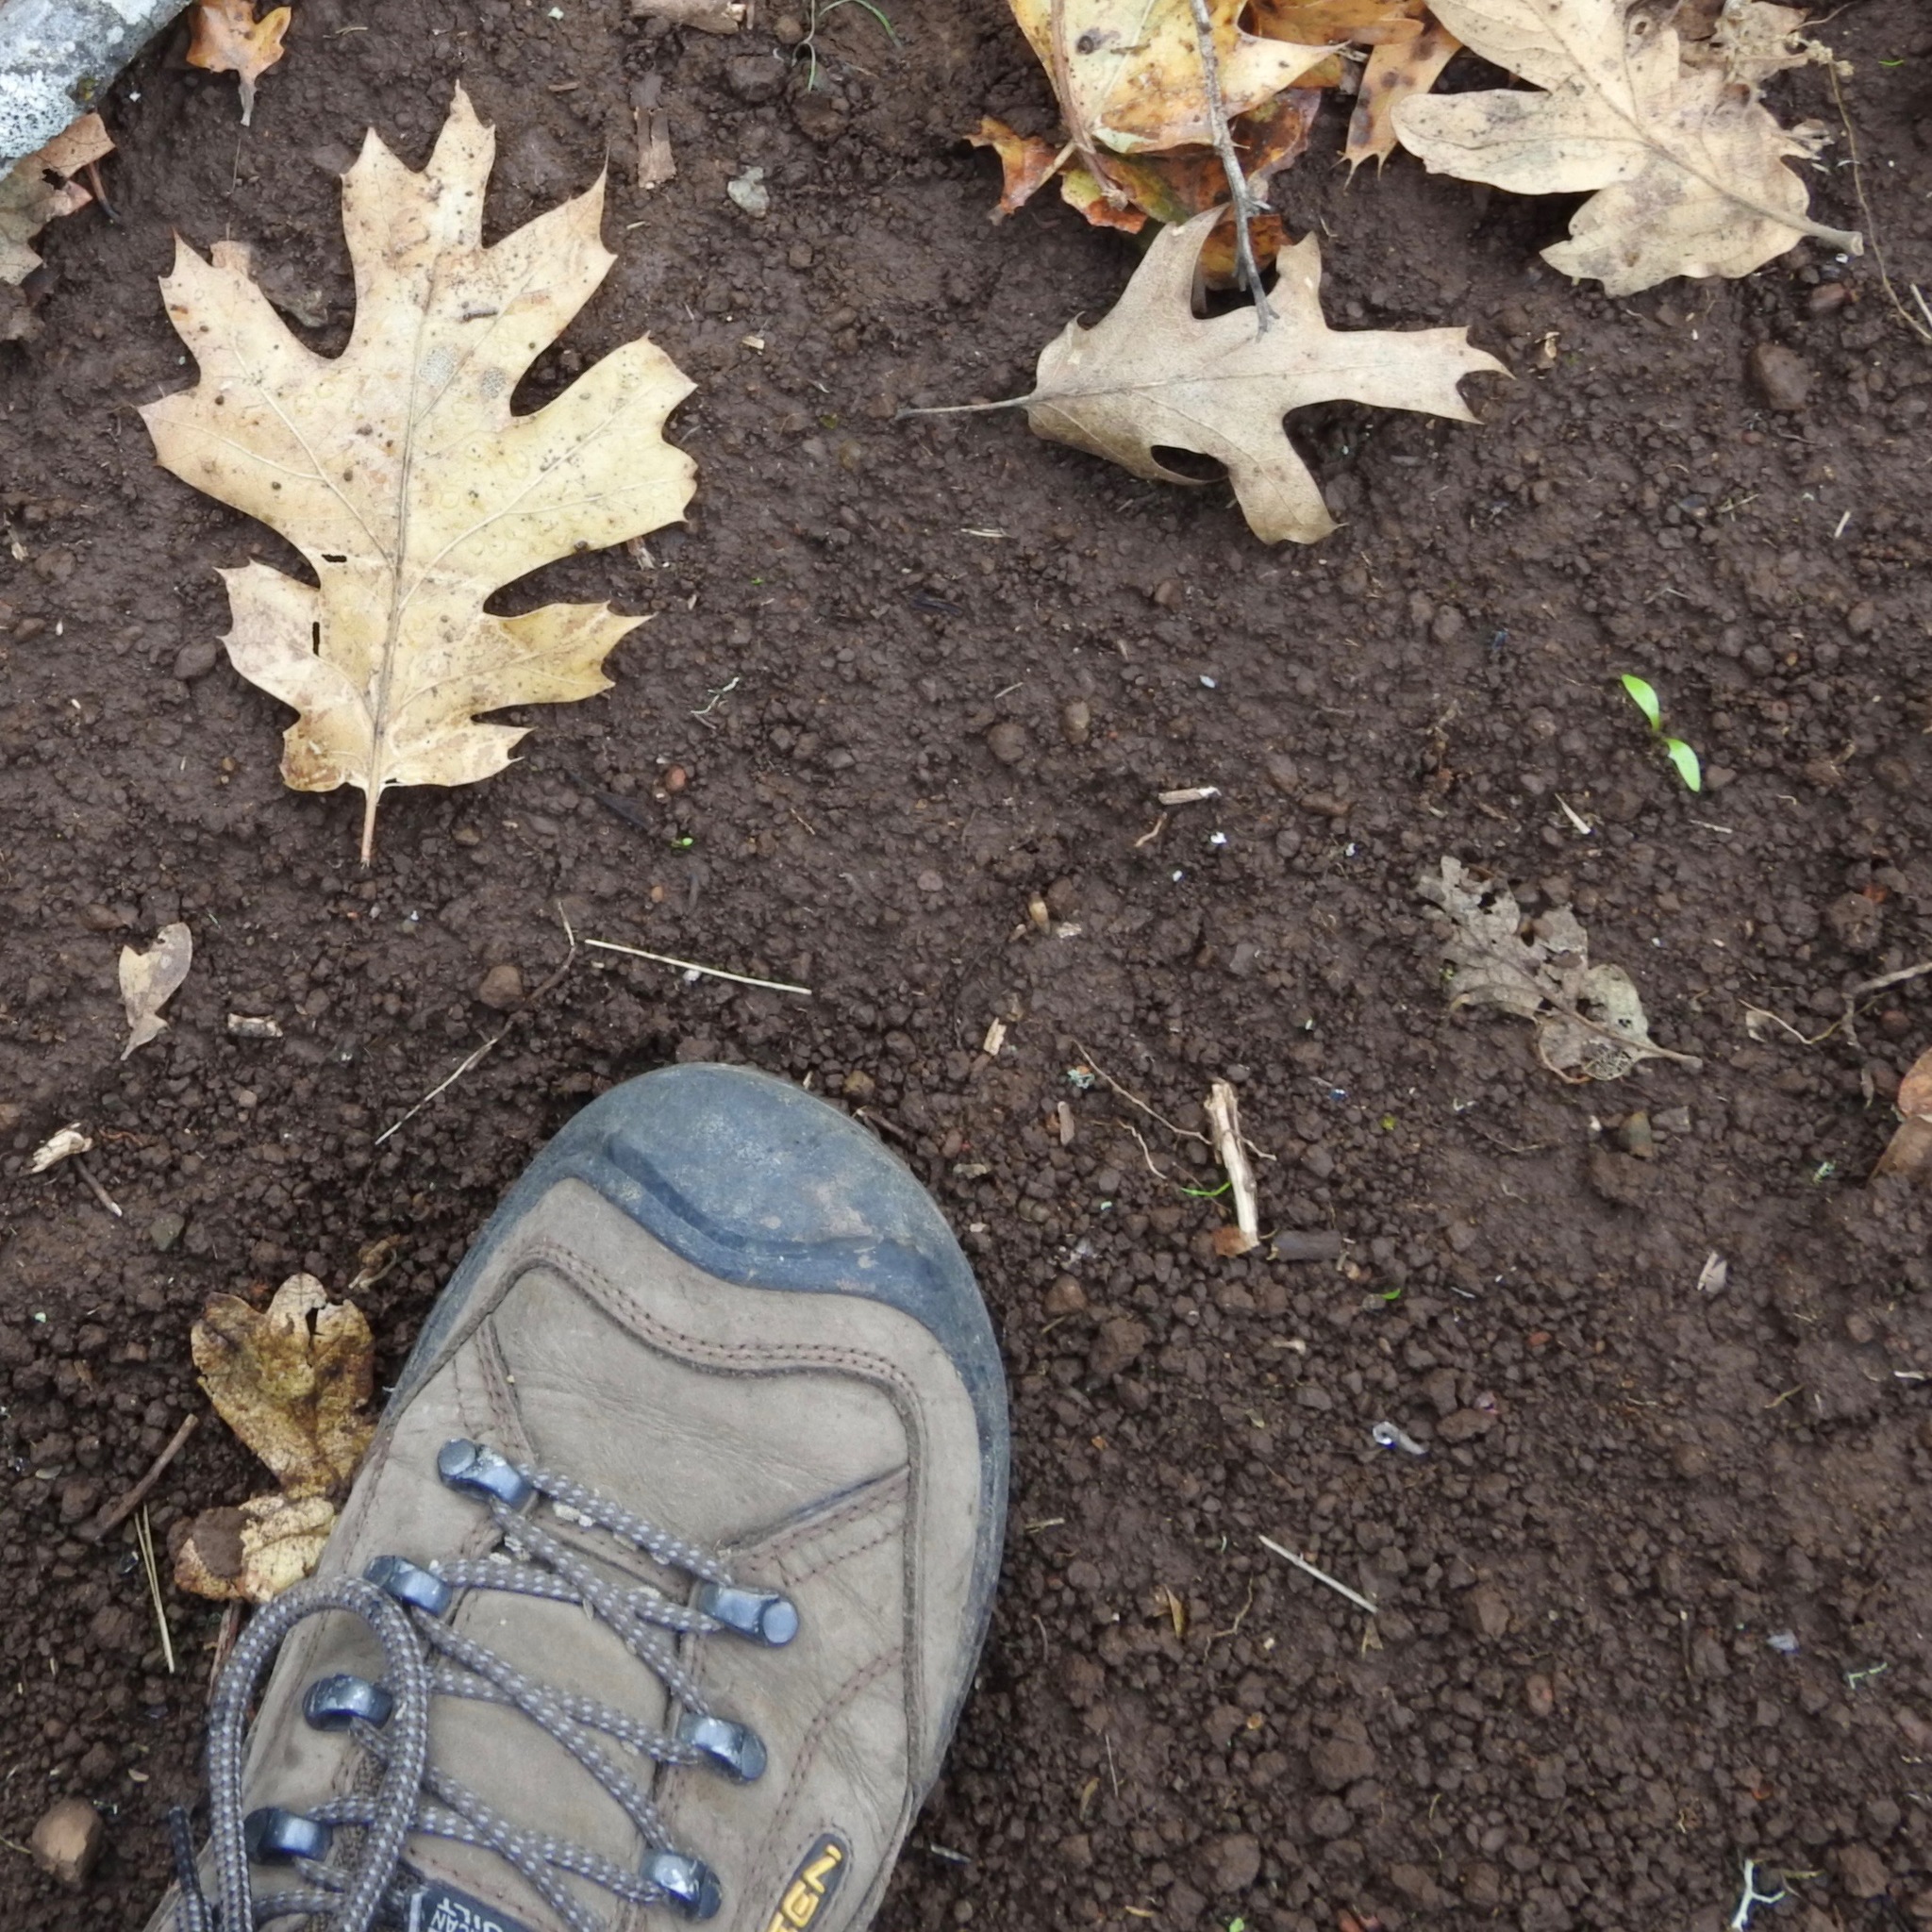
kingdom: Plantae
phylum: Tracheophyta
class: Magnoliopsida
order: Fagales
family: Fagaceae
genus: Quercus
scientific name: Quercus kelloggii
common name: California black oak
